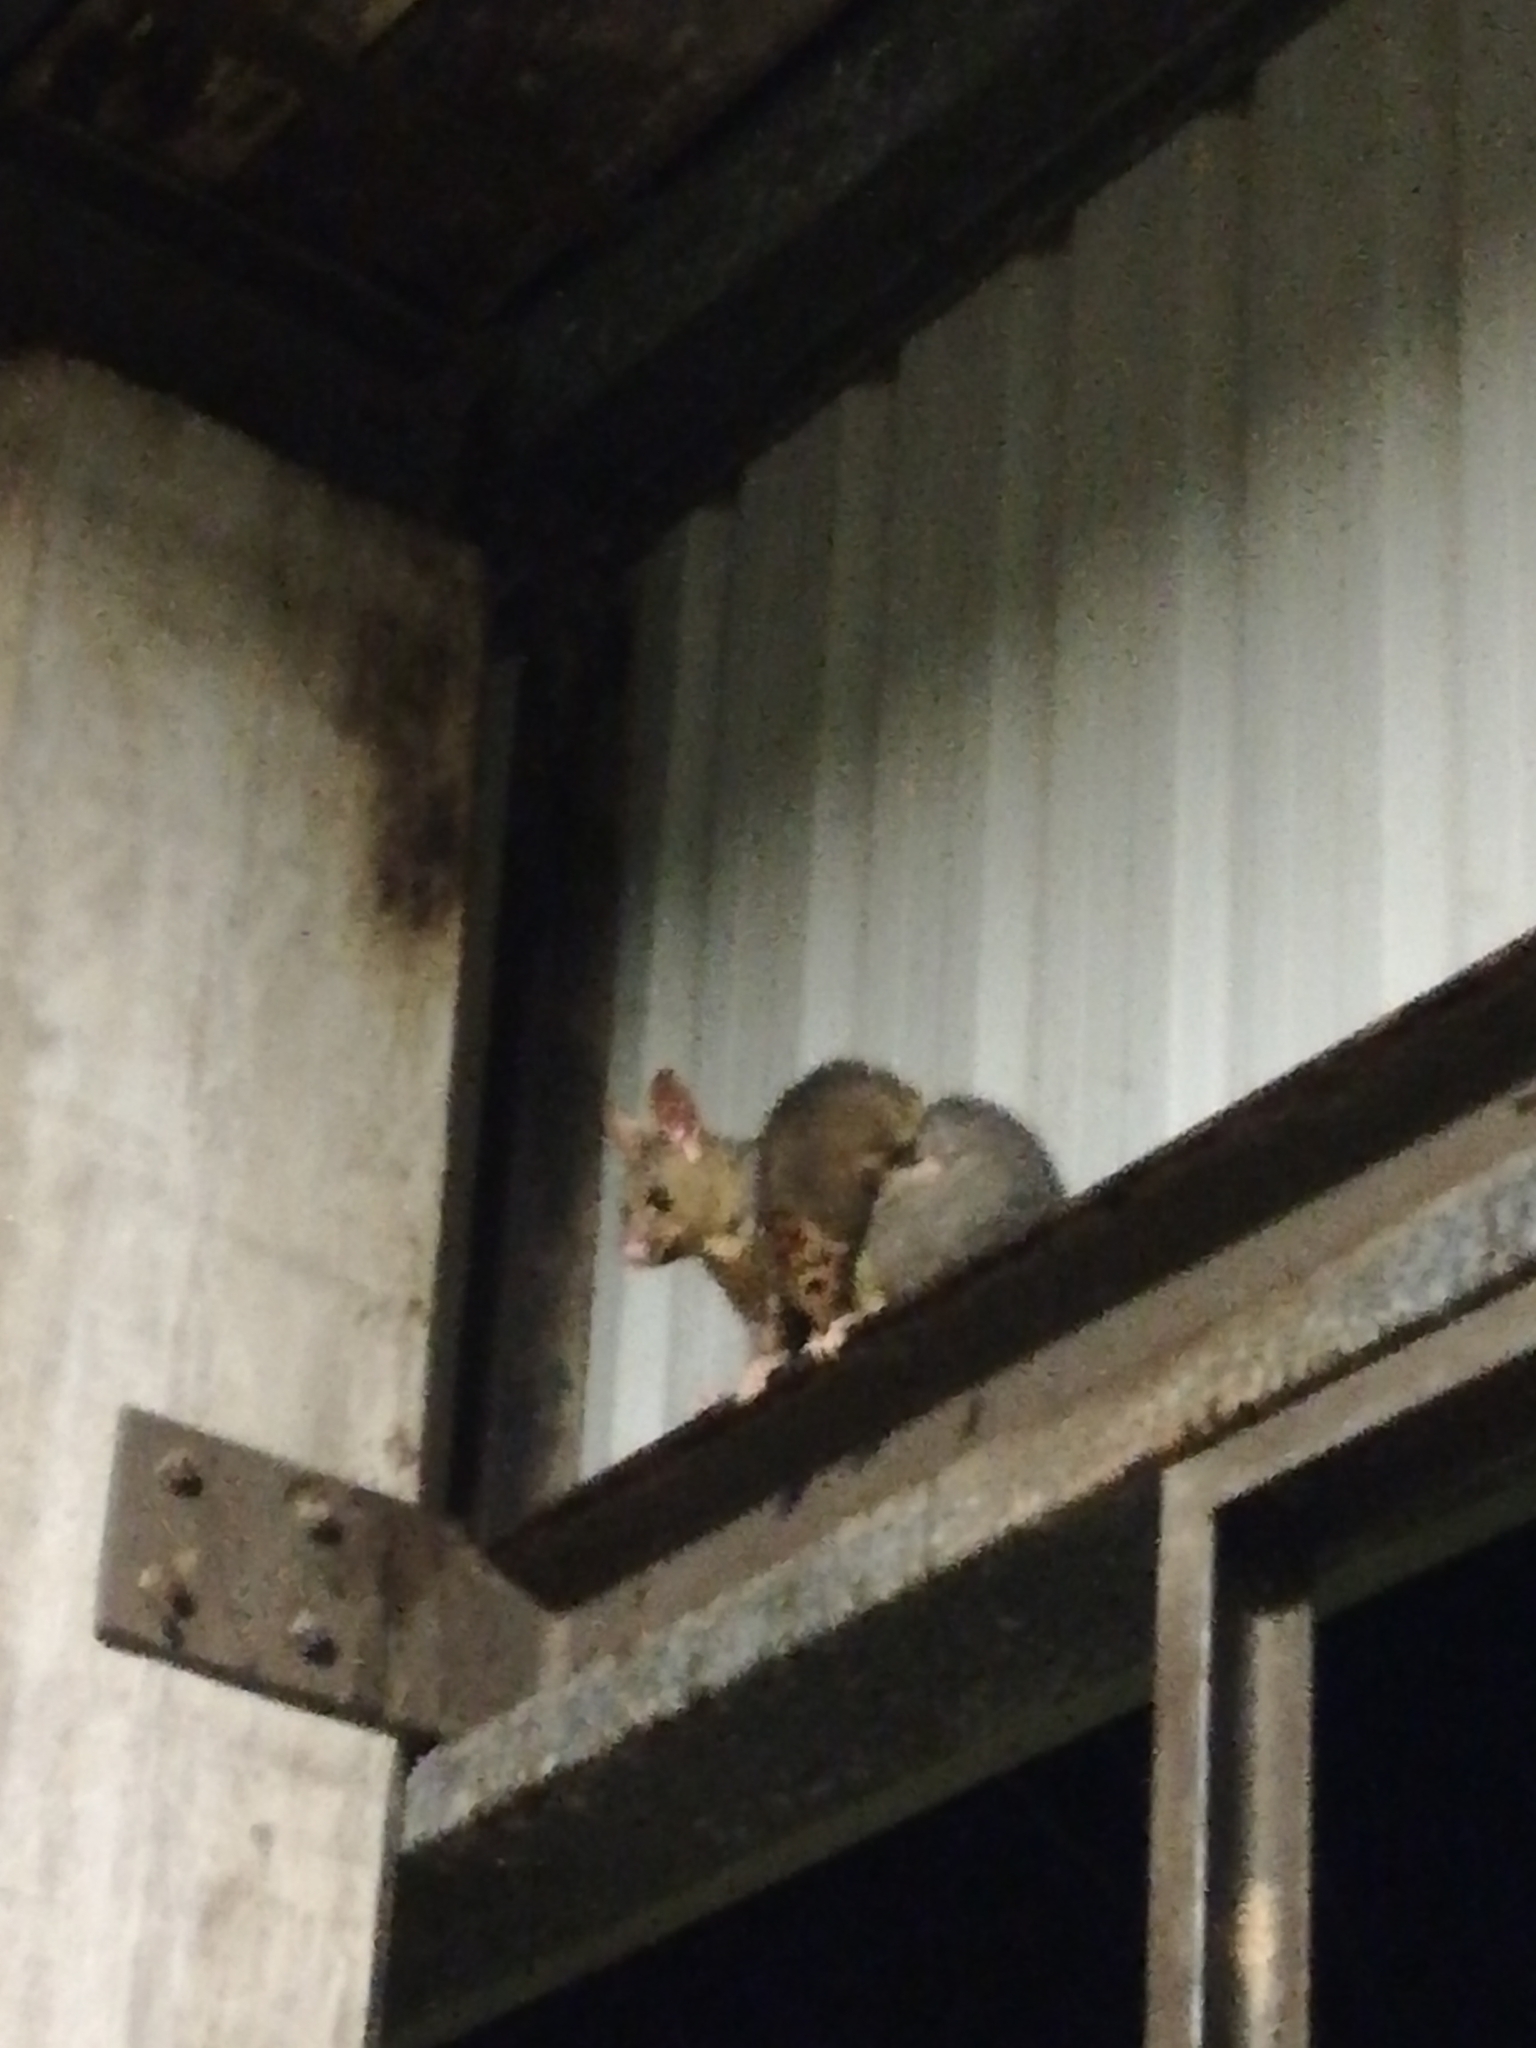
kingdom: Animalia
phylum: Chordata
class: Mammalia
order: Diprotodontia
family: Phalangeridae
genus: Trichosurus
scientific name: Trichosurus vulpecula
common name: Common brushtail
